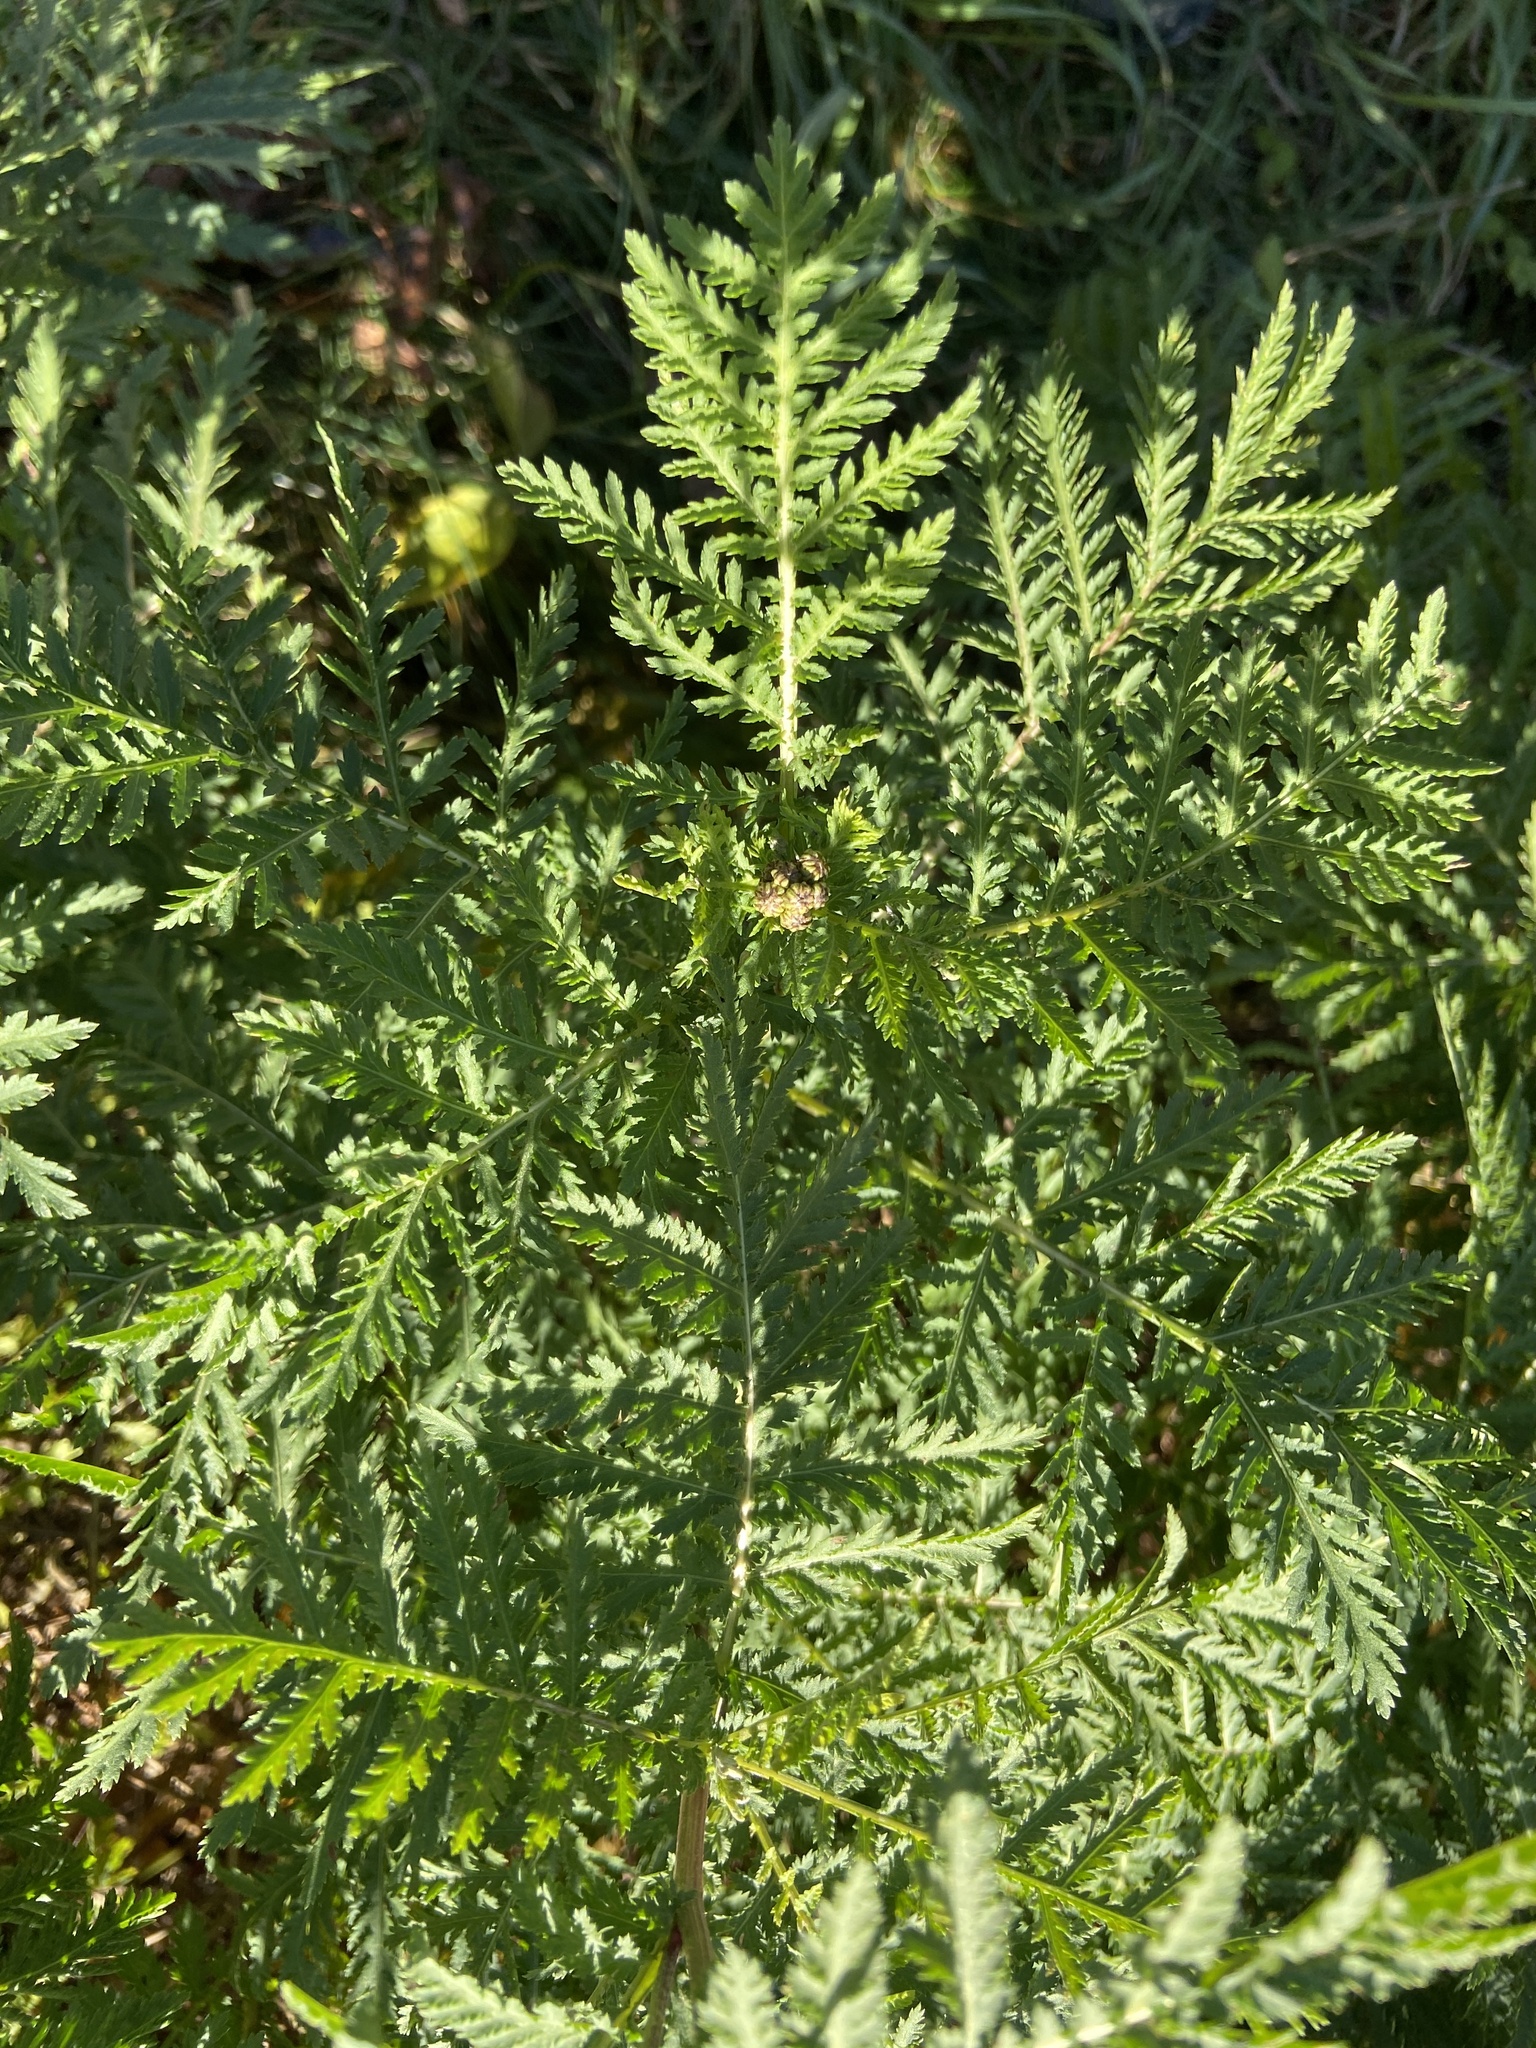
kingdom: Plantae
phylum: Tracheophyta
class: Magnoliopsida
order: Asterales
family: Asteraceae
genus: Tanacetum
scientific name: Tanacetum vulgare
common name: Common tansy
